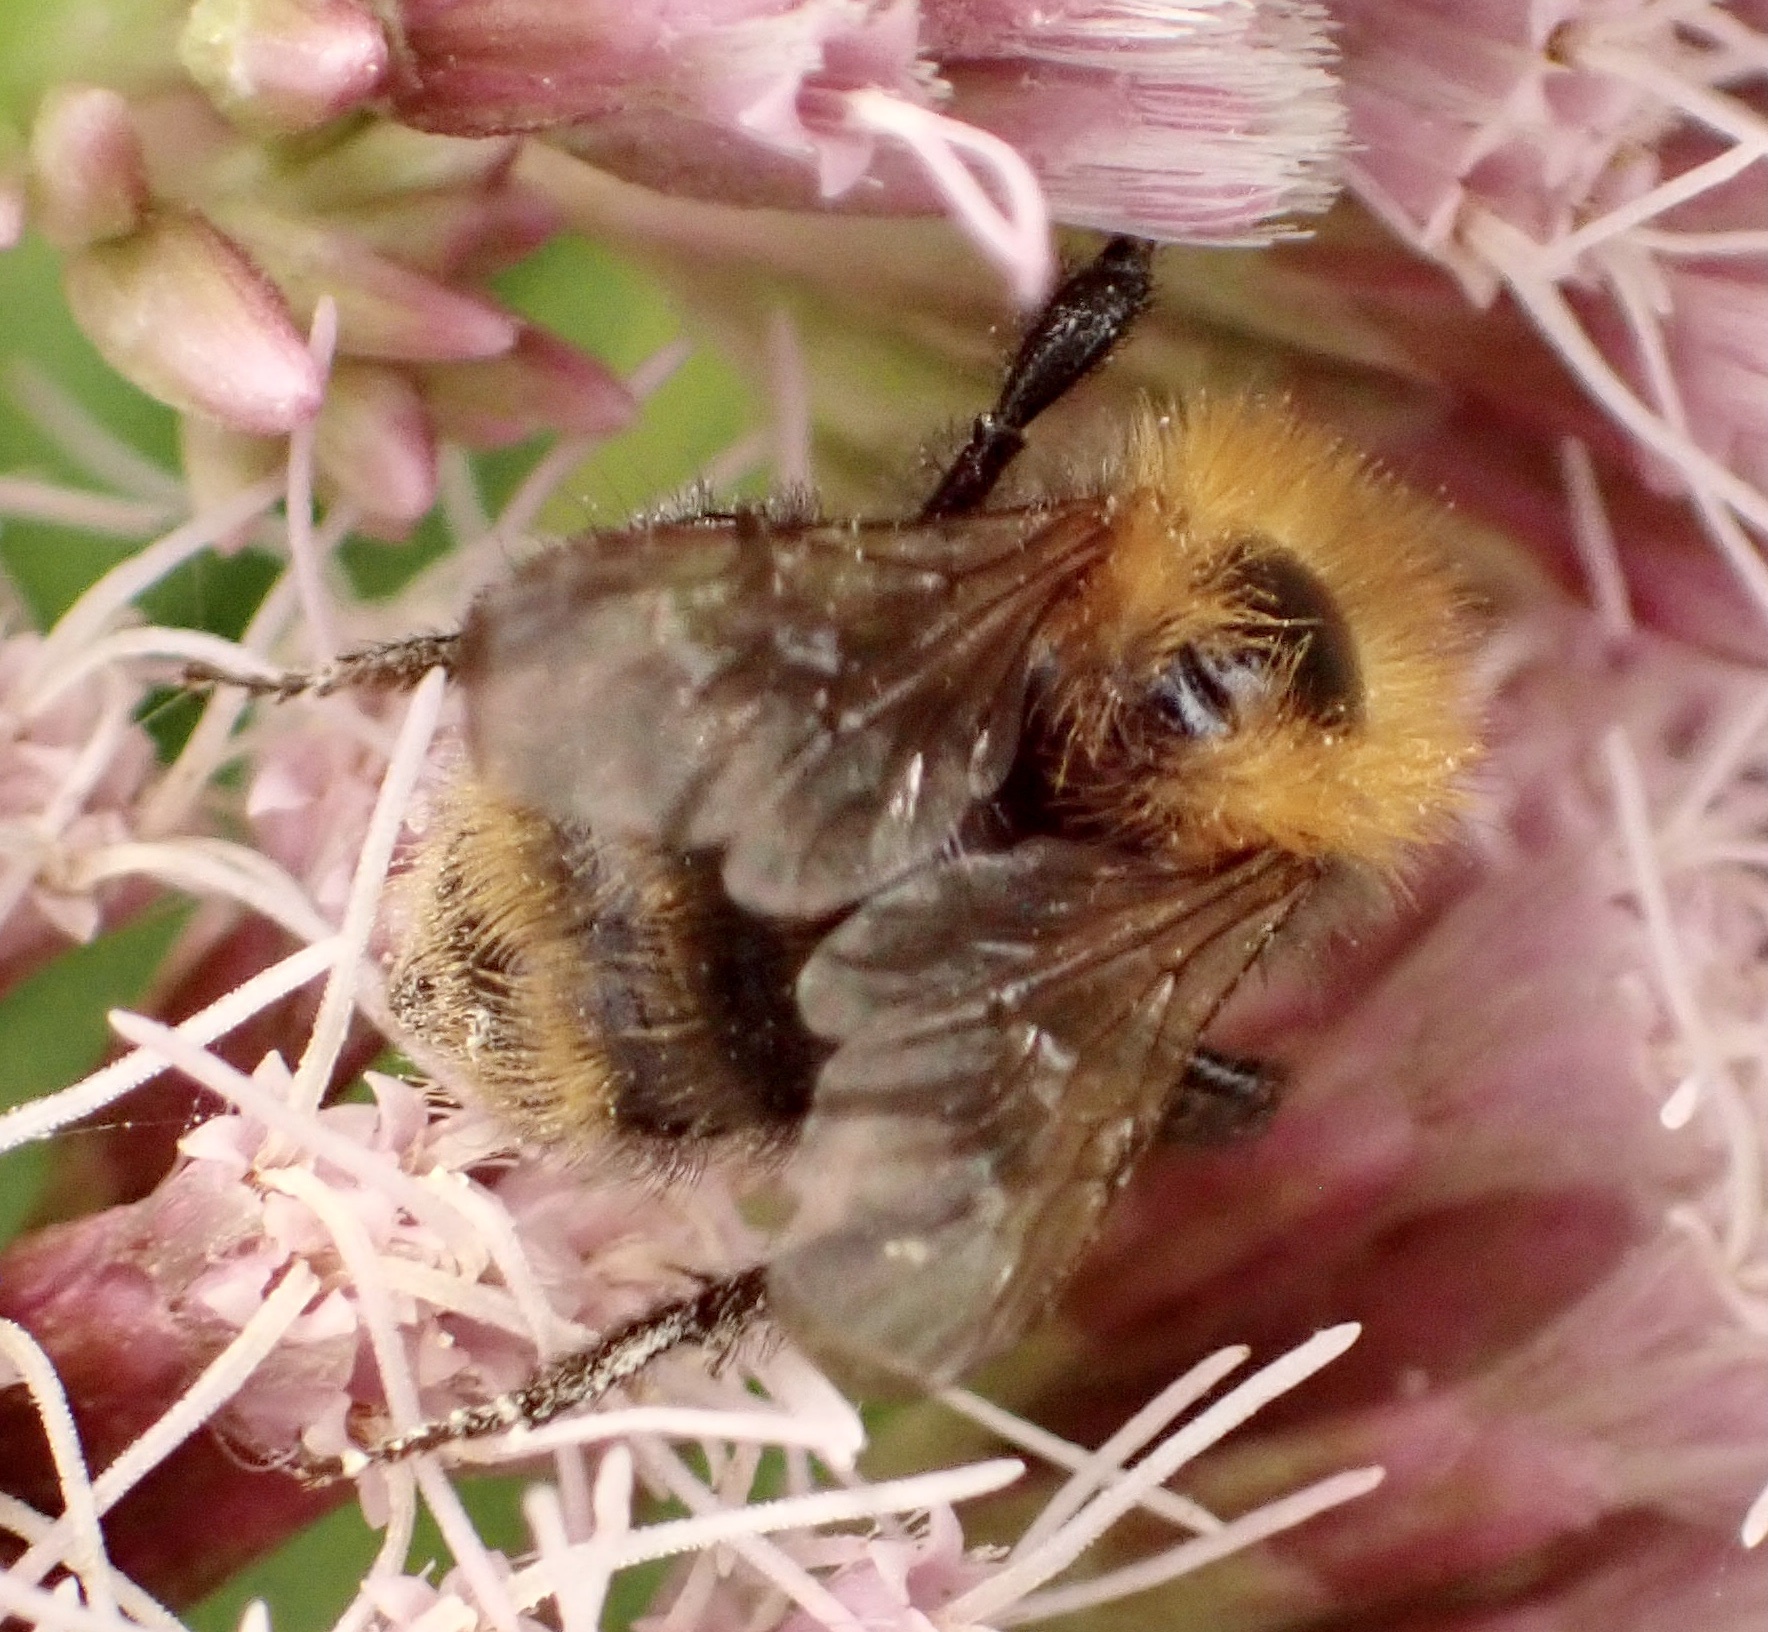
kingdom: Animalia
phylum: Arthropoda
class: Insecta
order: Hymenoptera
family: Apidae
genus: Bombus
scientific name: Bombus pascuorum
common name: Common carder bee
